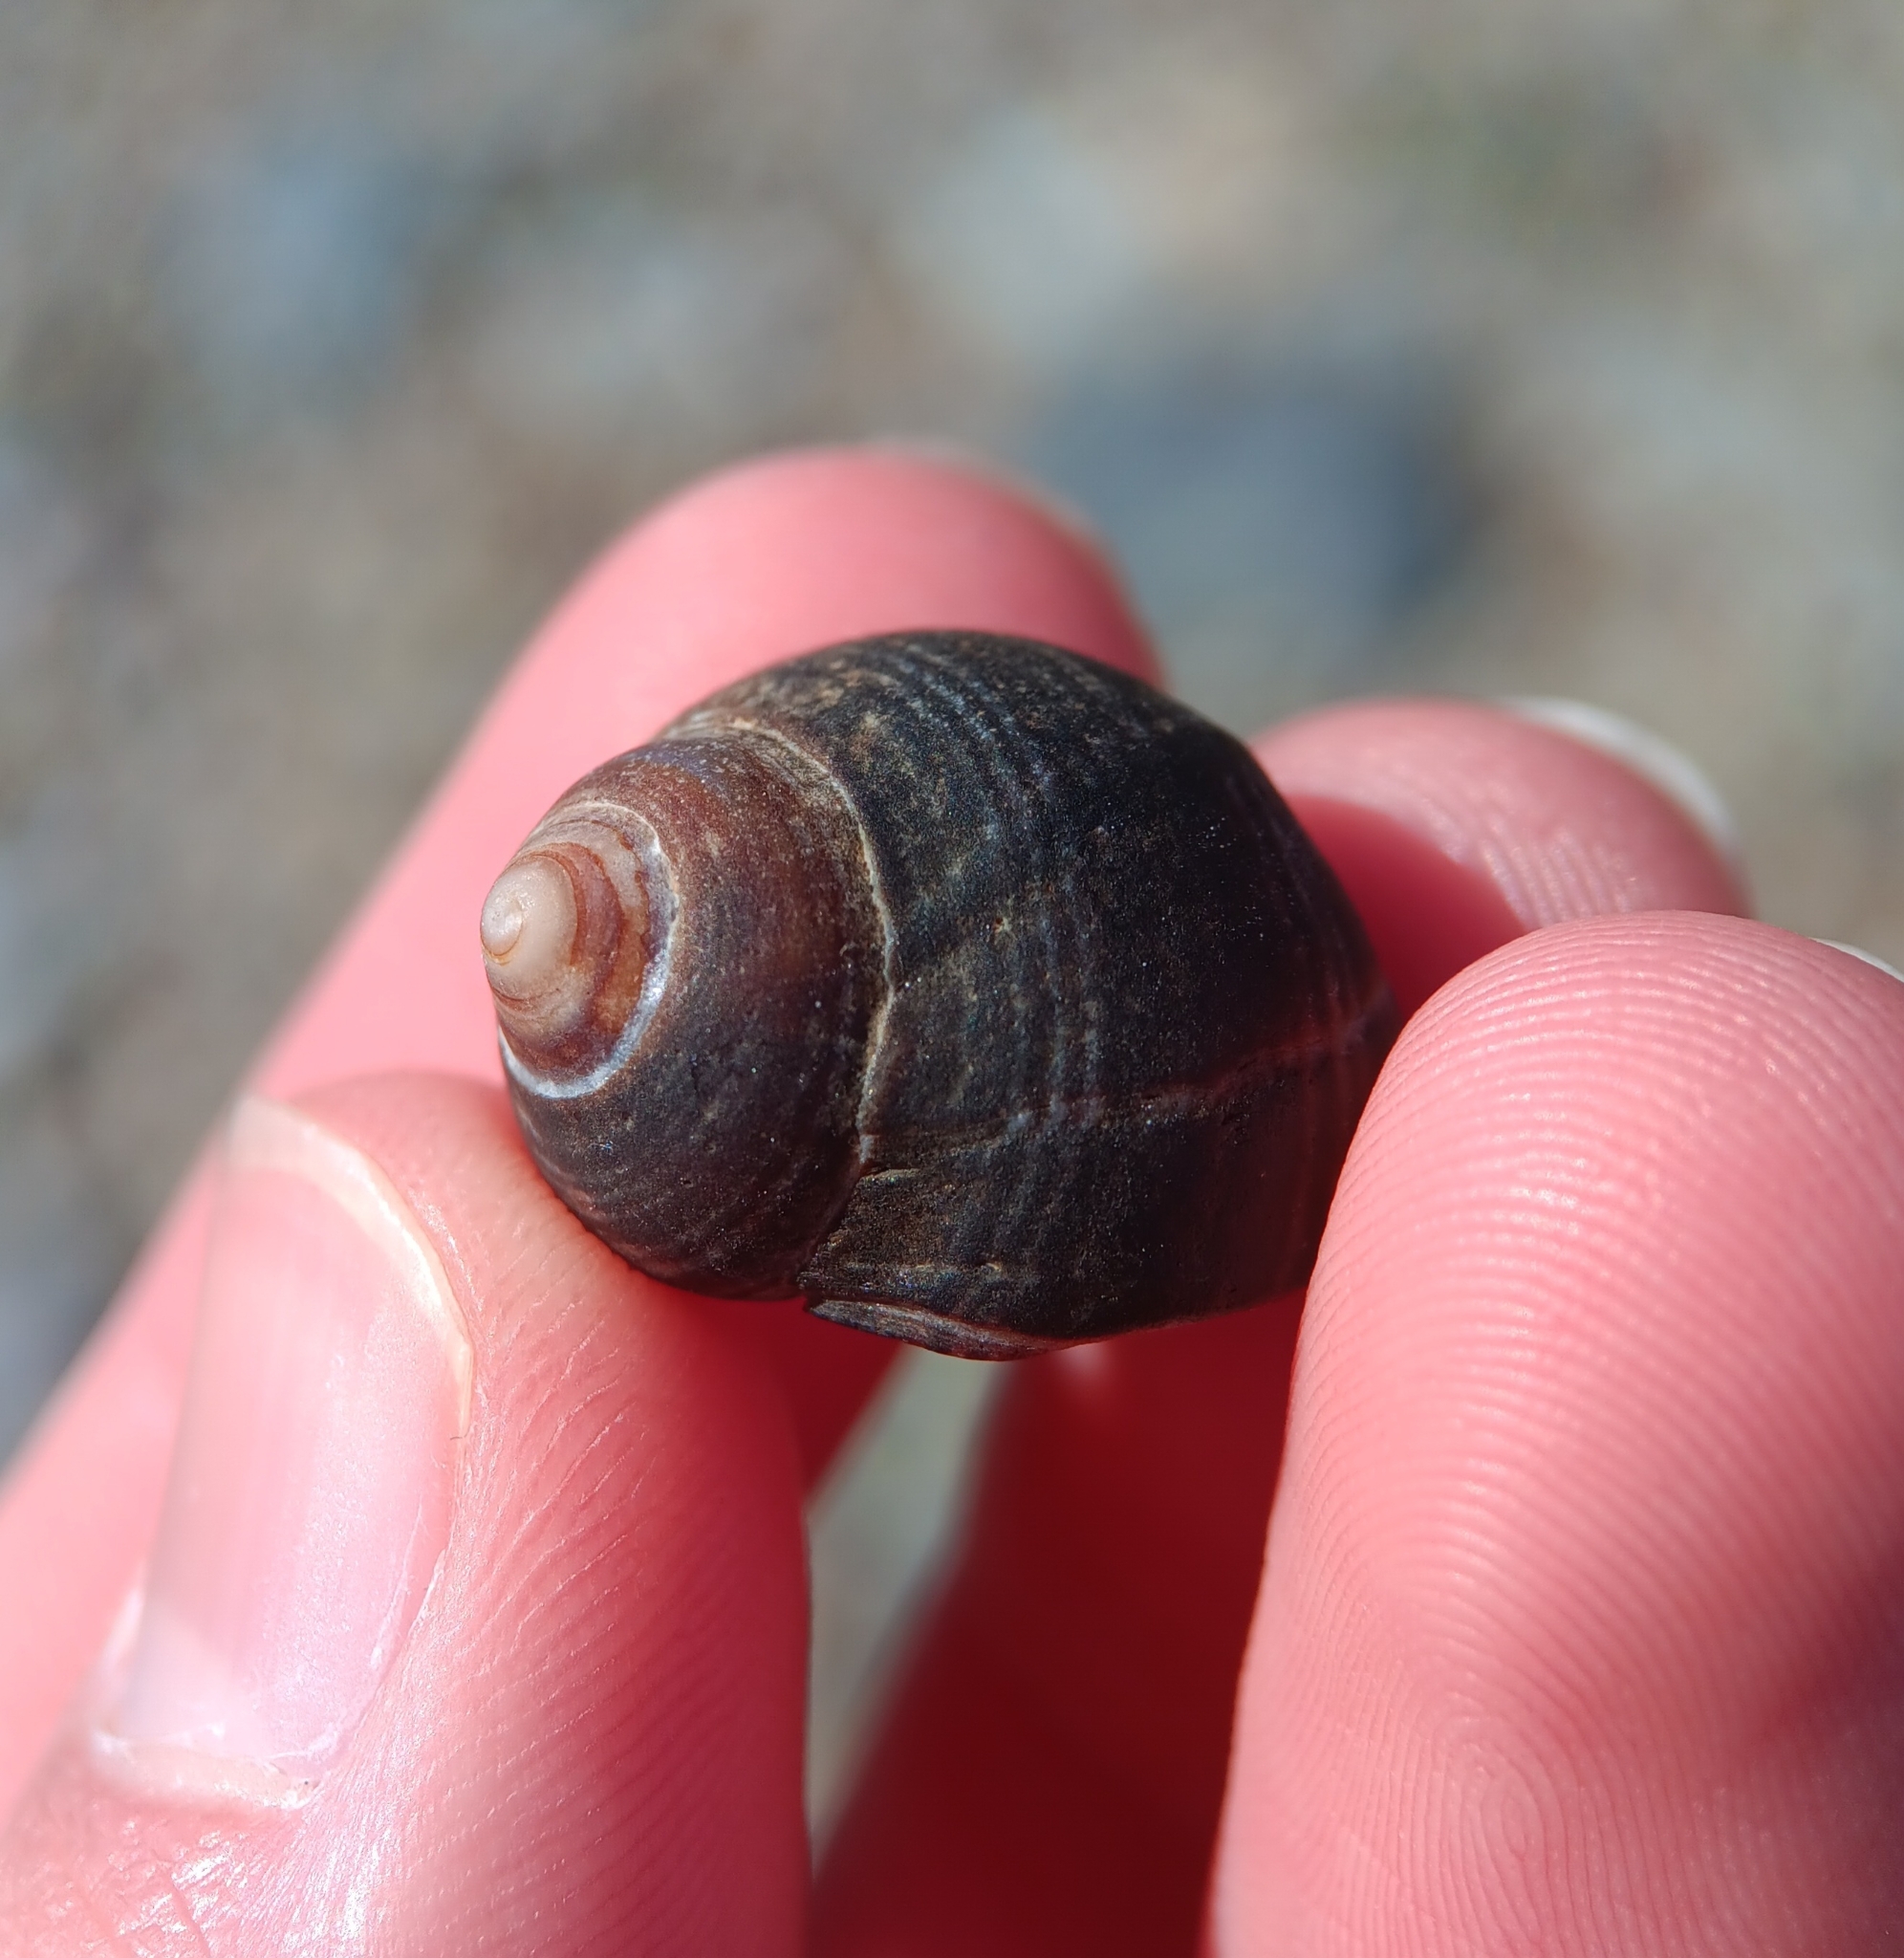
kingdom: Animalia
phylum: Mollusca
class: Gastropoda
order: Littorinimorpha
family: Littorinidae
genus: Littorina
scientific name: Littorina littorea
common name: Common periwinkle
